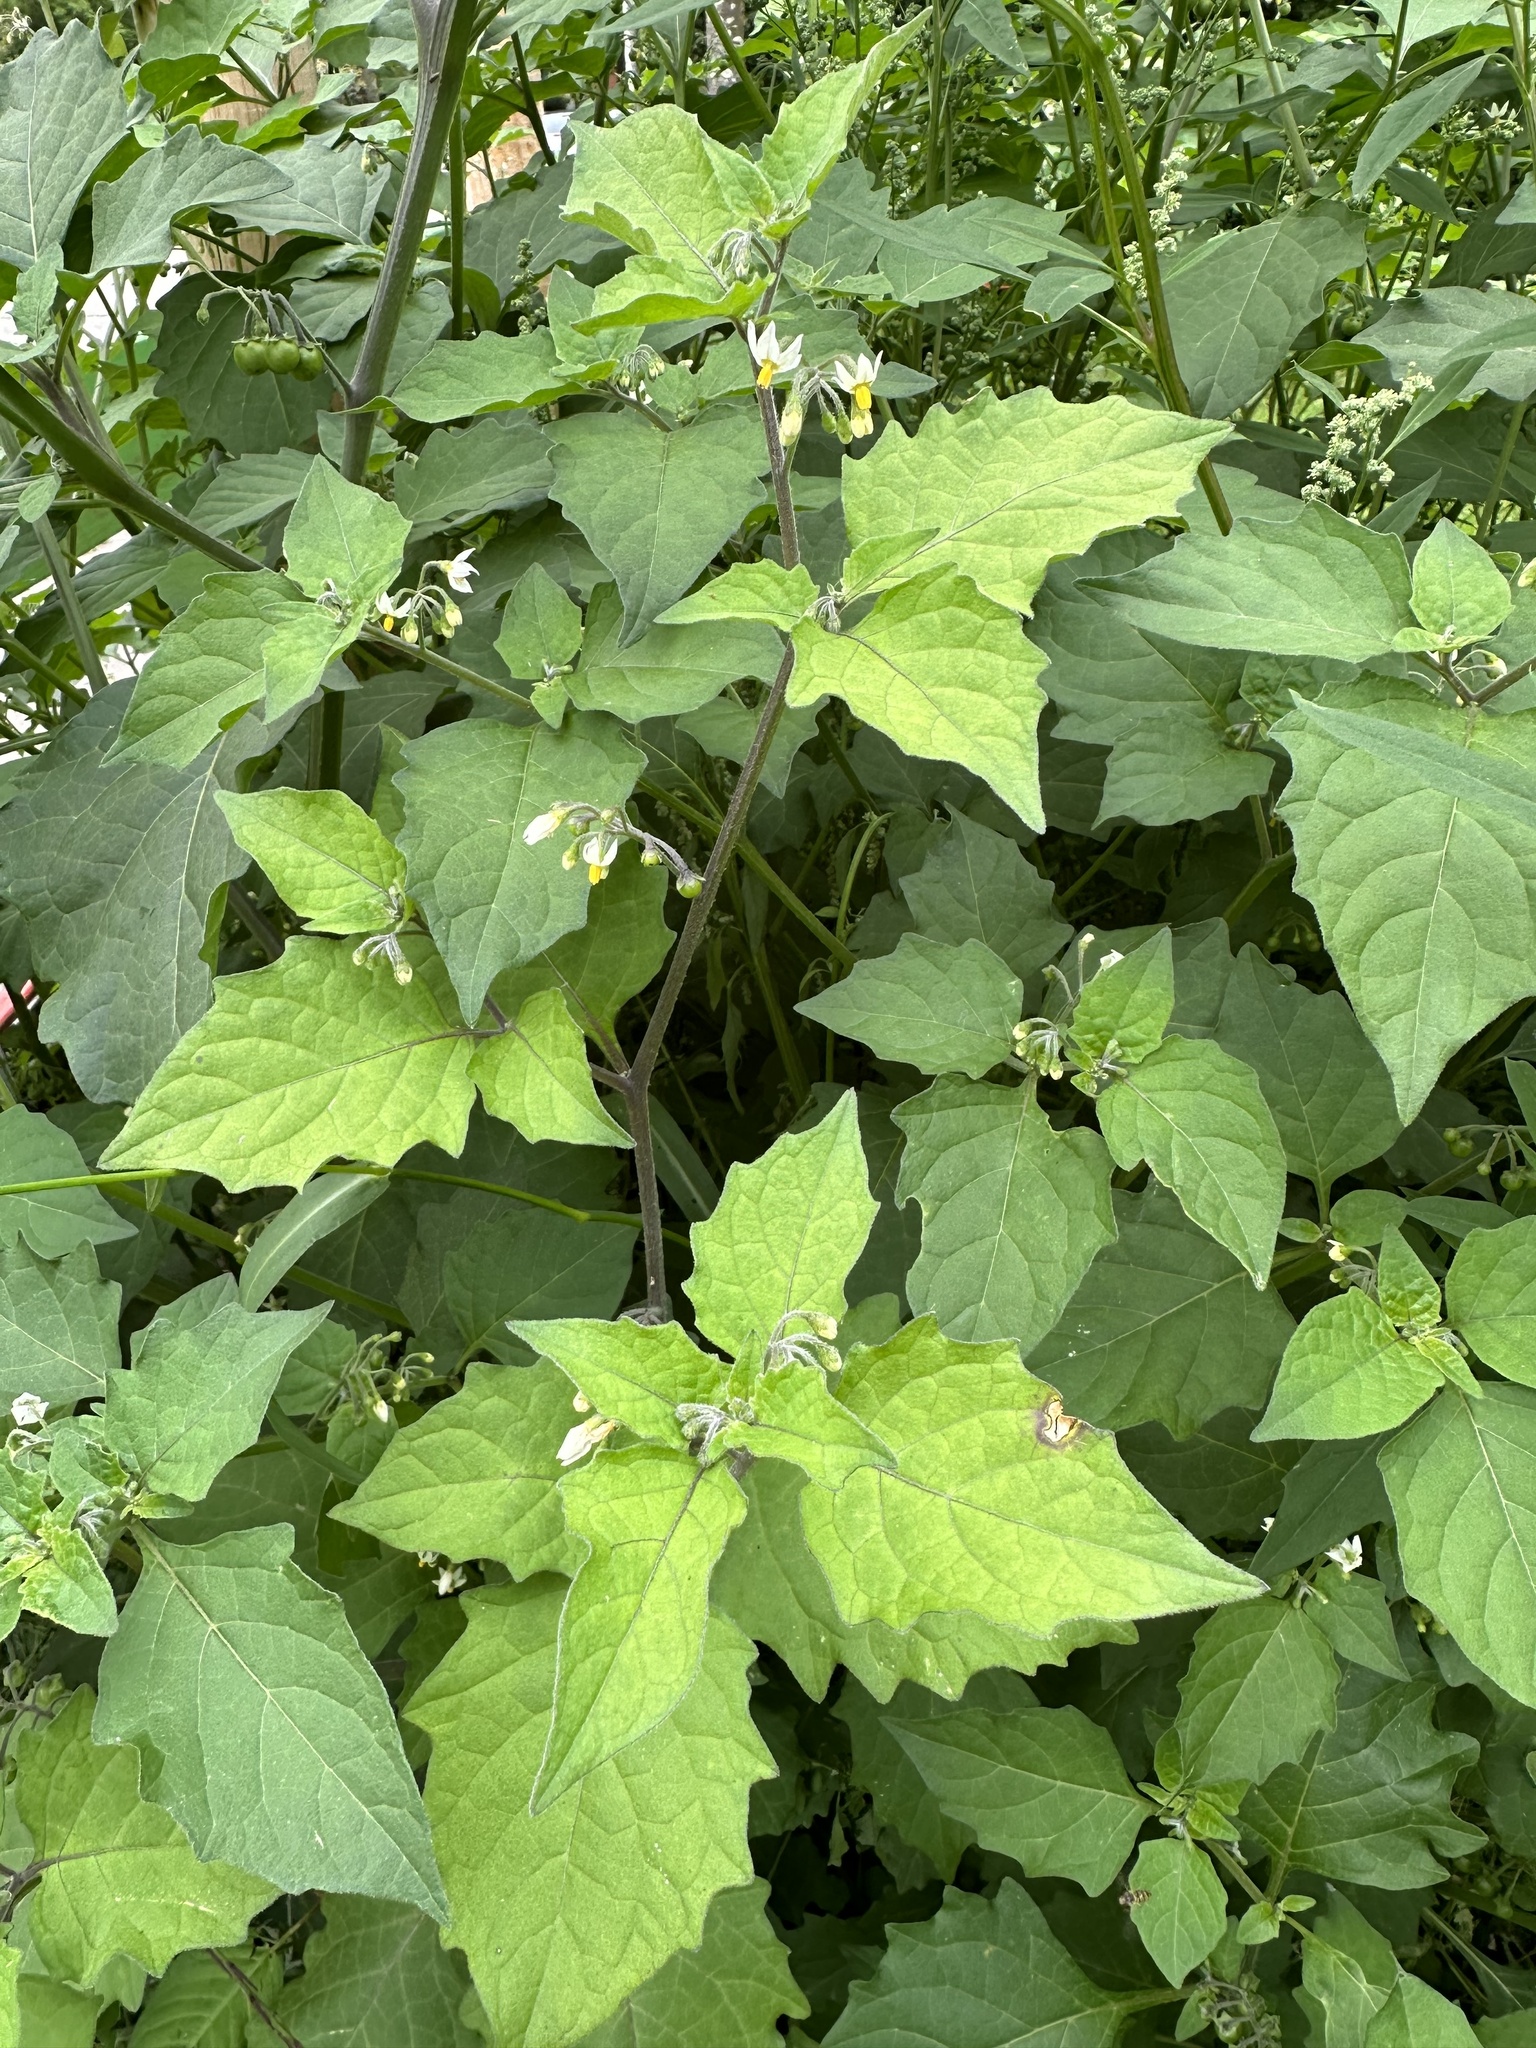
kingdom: Plantae
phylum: Tracheophyta
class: Magnoliopsida
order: Solanales
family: Solanaceae
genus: Solanum
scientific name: Solanum nigrum
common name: Black nightshade
